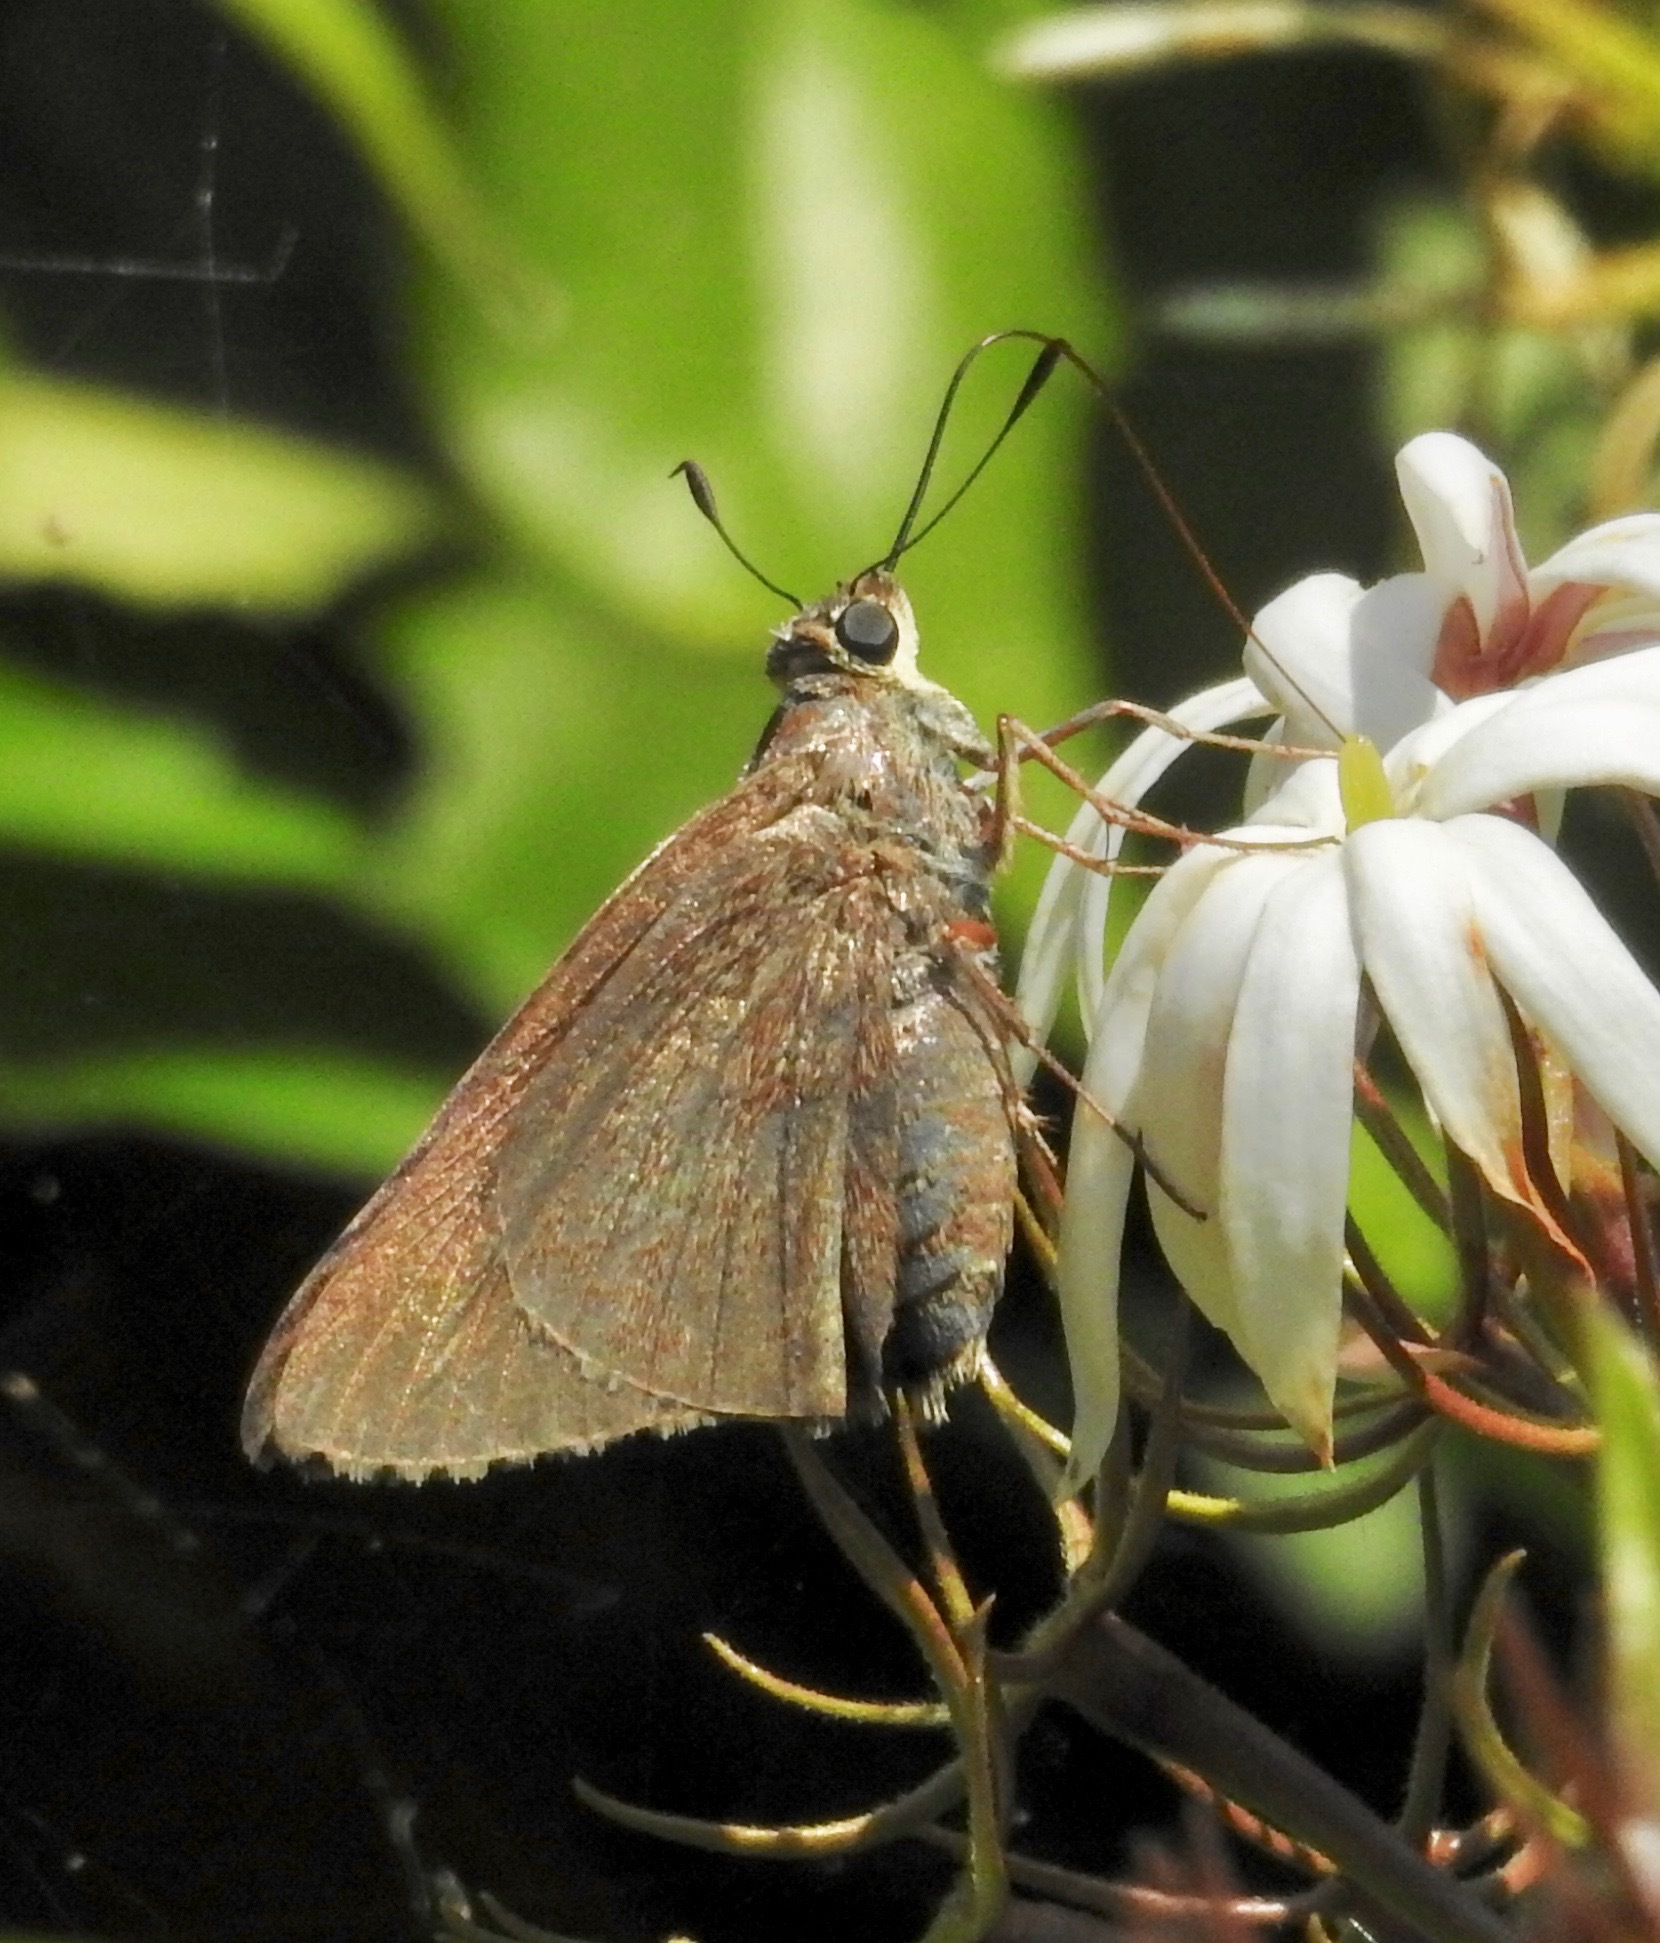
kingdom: Animalia
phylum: Arthropoda
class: Insecta
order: Lepidoptera
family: Hesperiidae
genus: Asbolis
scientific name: Asbolis capucinus
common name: Monk skipper
